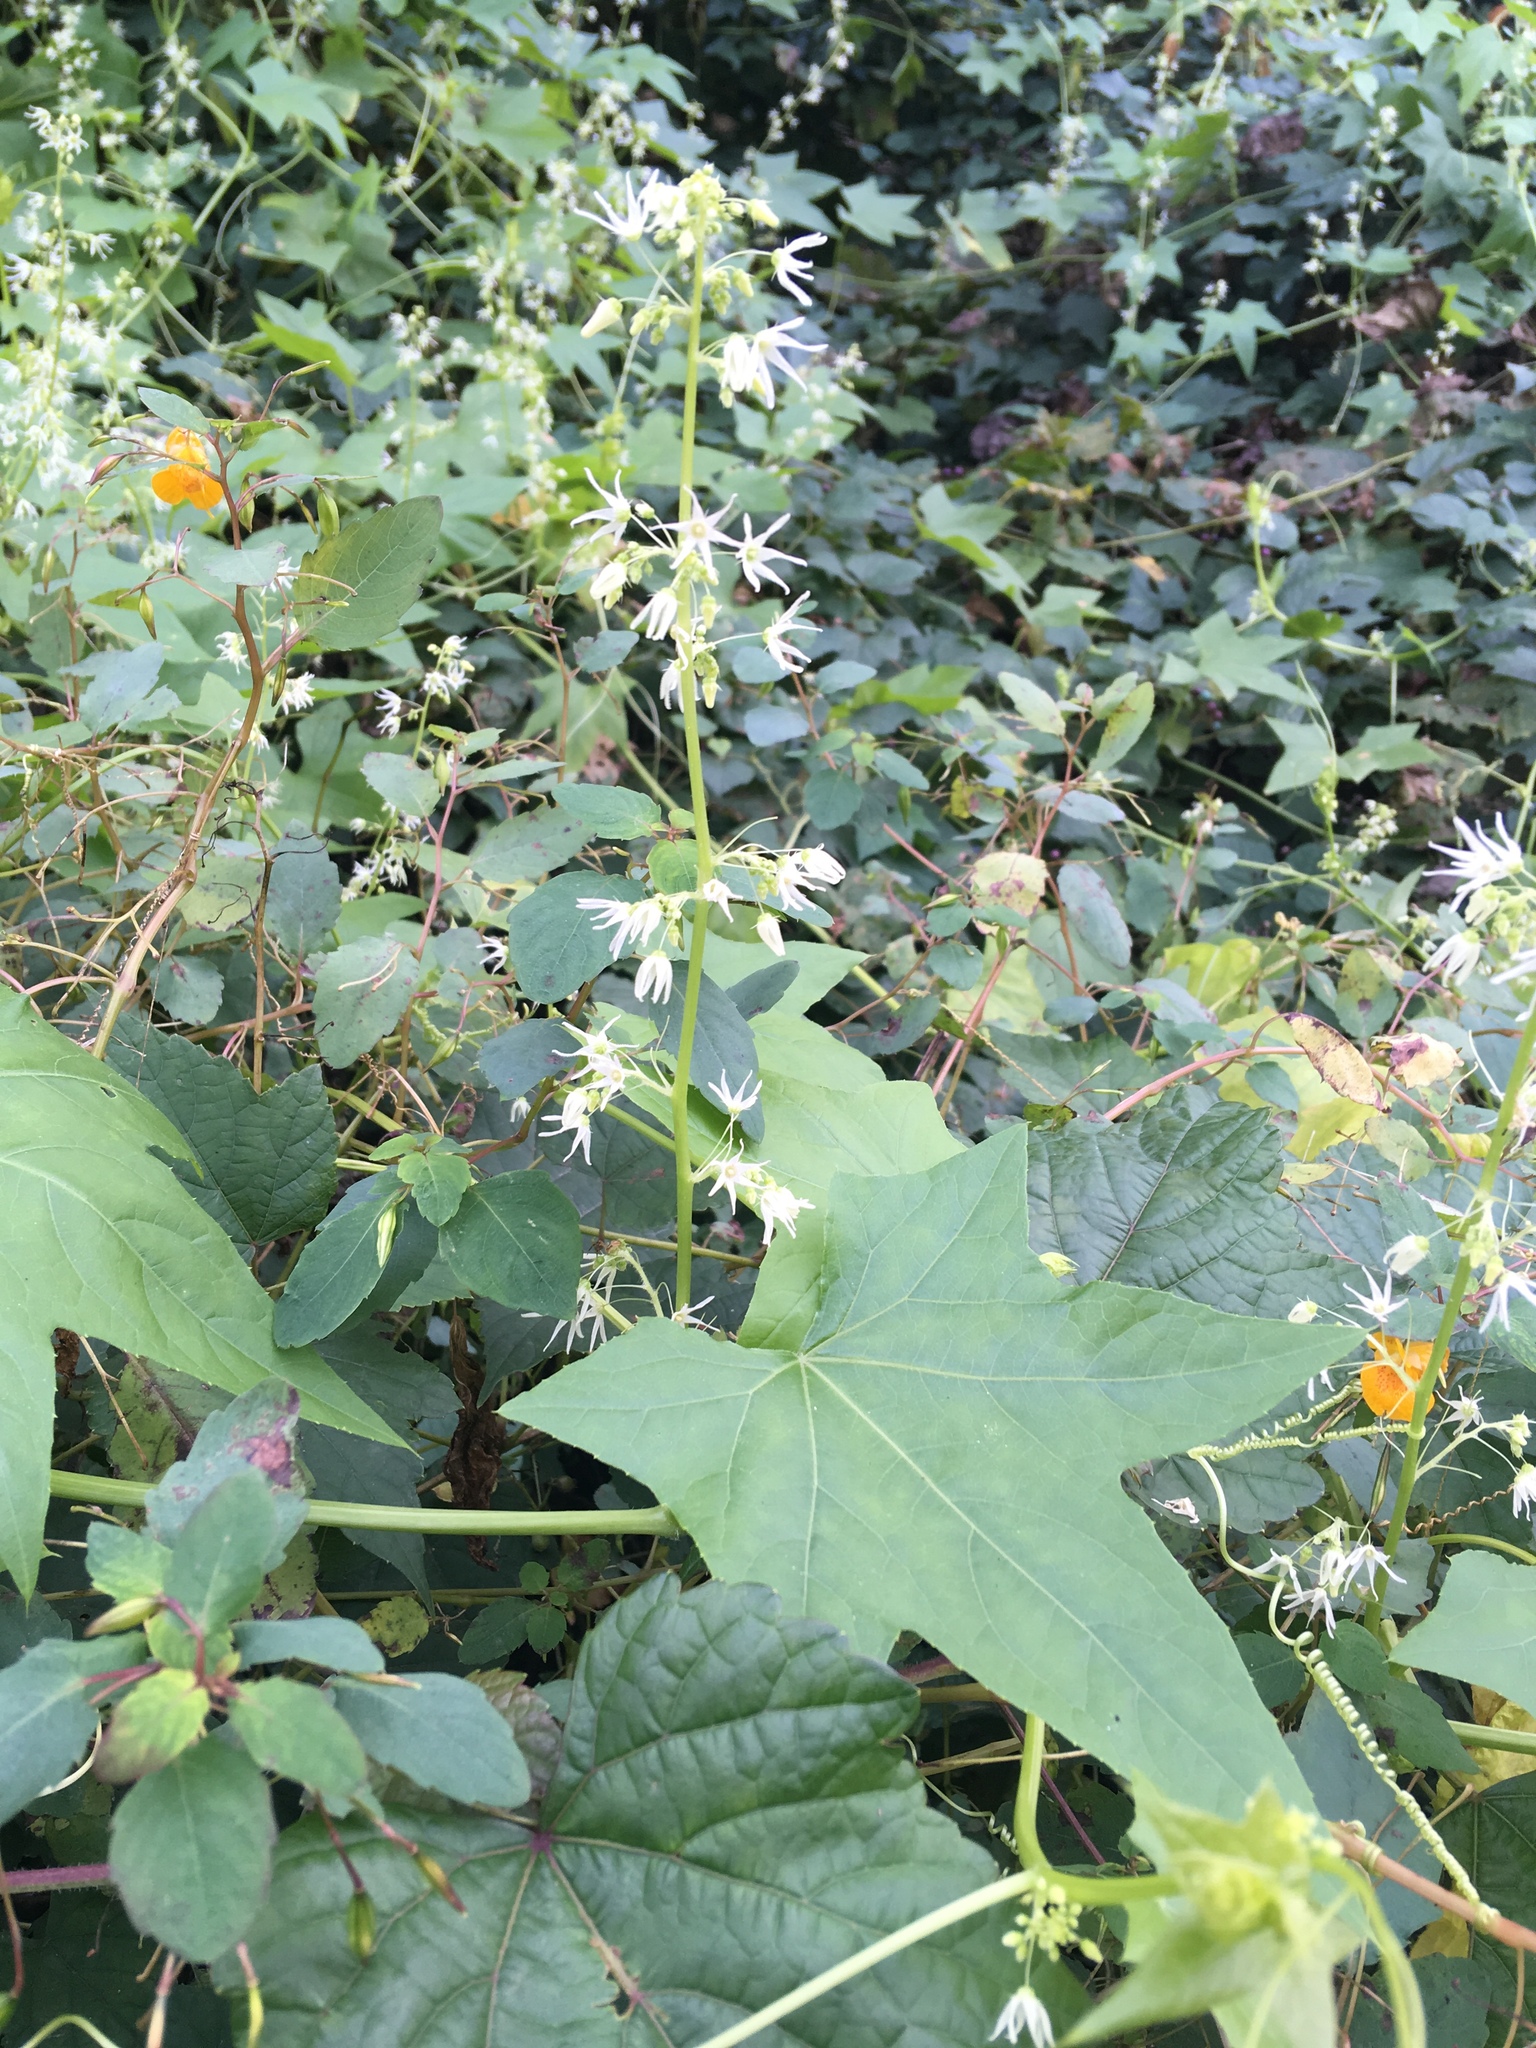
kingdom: Plantae
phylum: Tracheophyta
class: Magnoliopsida
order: Cucurbitales
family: Cucurbitaceae
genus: Echinocystis
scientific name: Echinocystis lobata
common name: Wild cucumber
